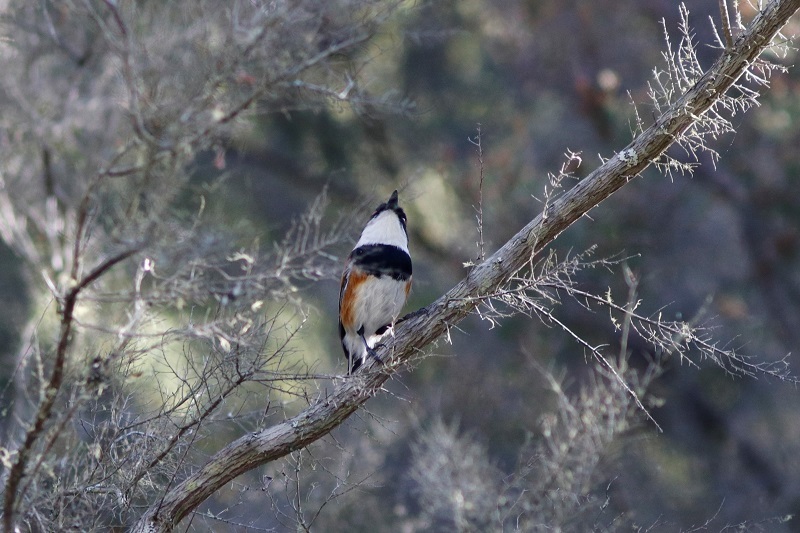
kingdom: Animalia
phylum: Chordata
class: Aves
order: Passeriformes
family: Platysteiridae
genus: Batis
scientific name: Batis capensis
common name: Cape batis
